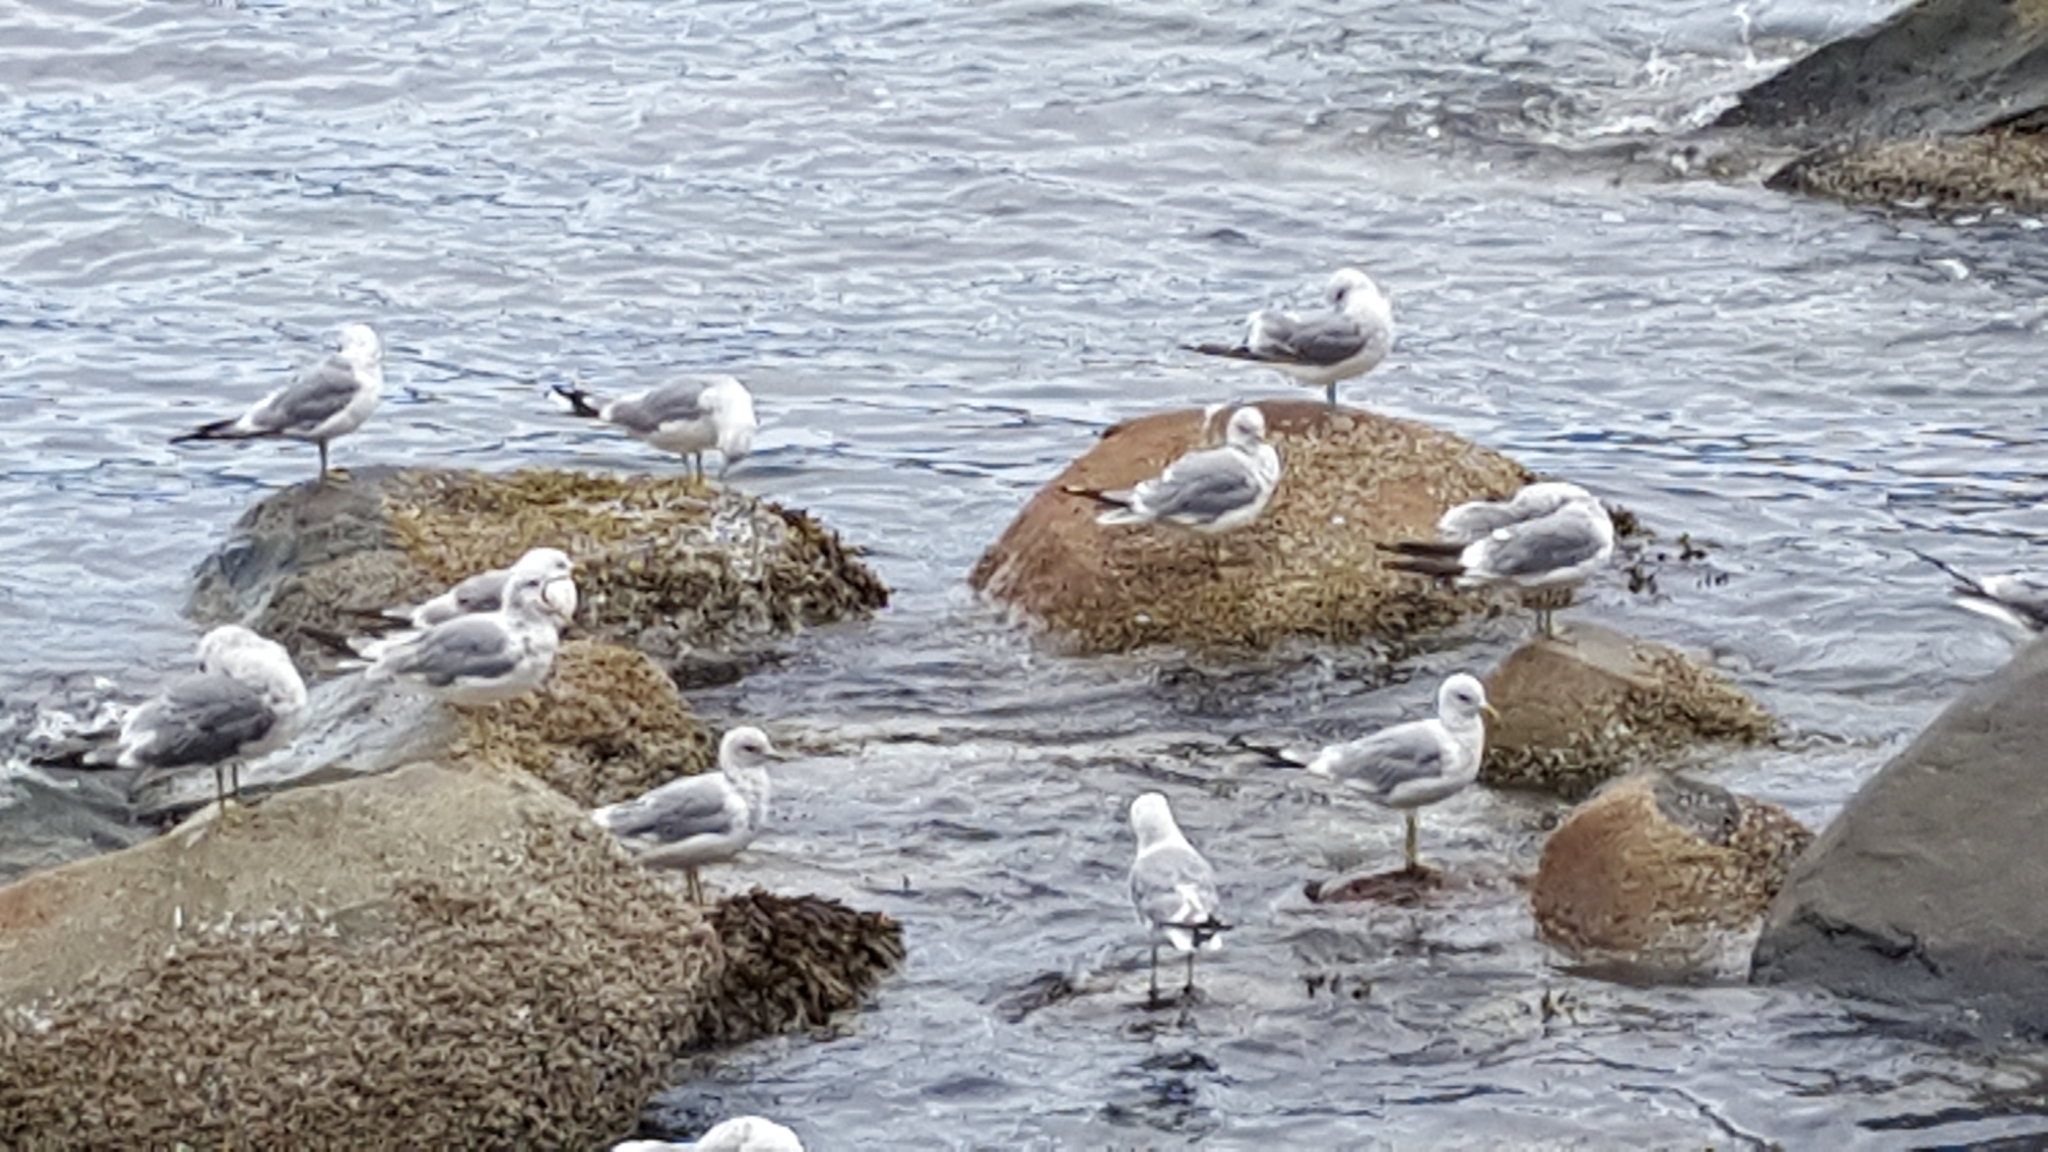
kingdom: Animalia
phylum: Chordata
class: Aves
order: Charadriiformes
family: Laridae
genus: Larus
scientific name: Larus brachyrhynchus
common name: Short-billed gull
